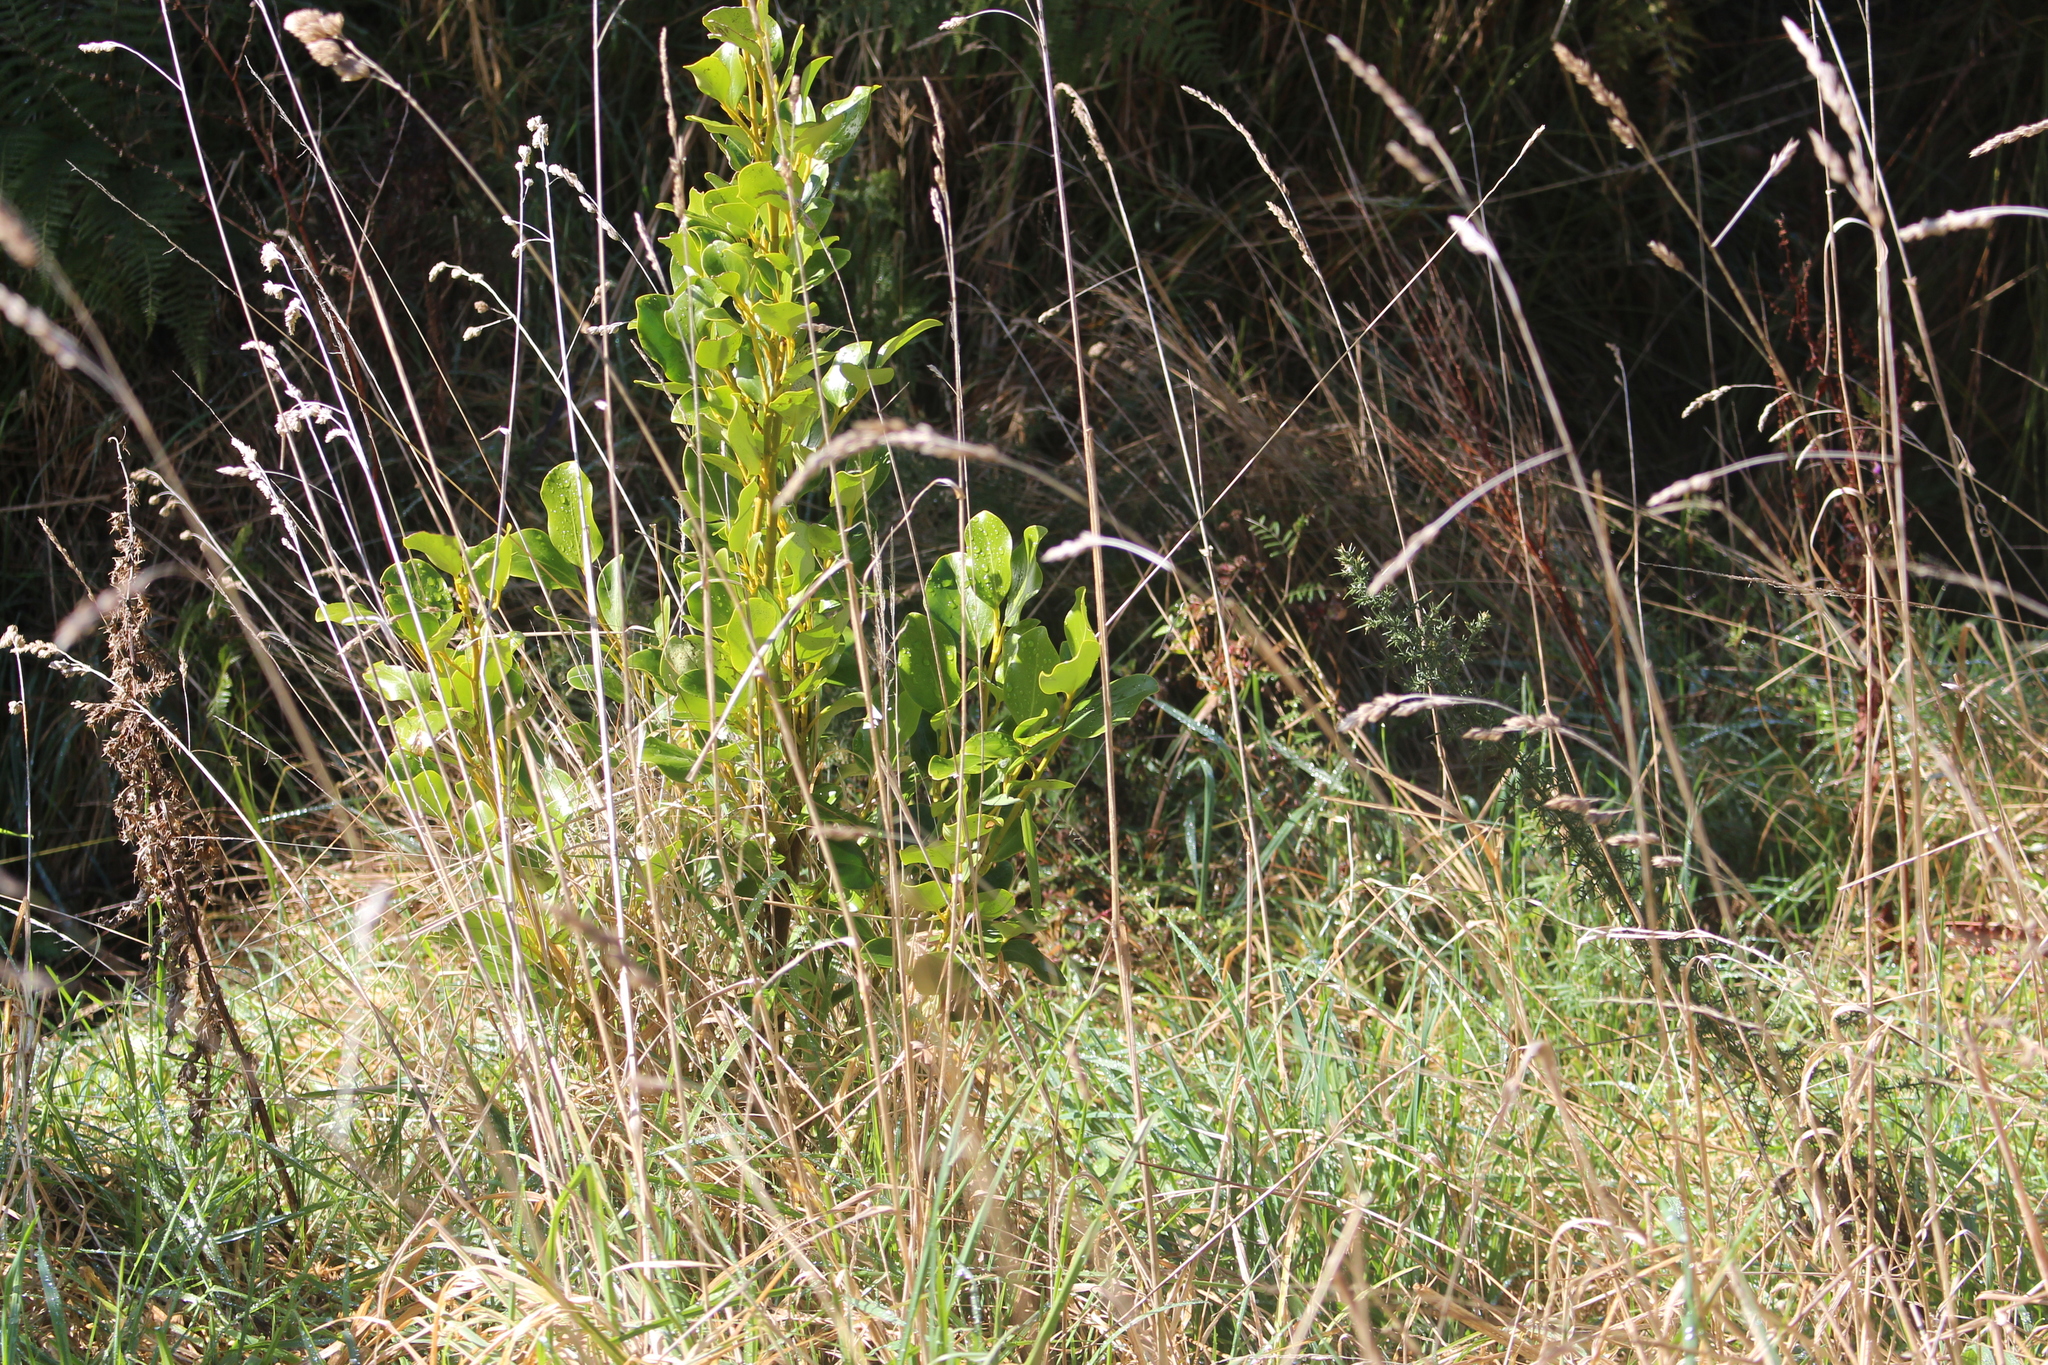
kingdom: Plantae
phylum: Tracheophyta
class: Magnoliopsida
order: Apiales
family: Griseliniaceae
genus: Griselinia
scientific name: Griselinia littoralis
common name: New zealand broadleaf
